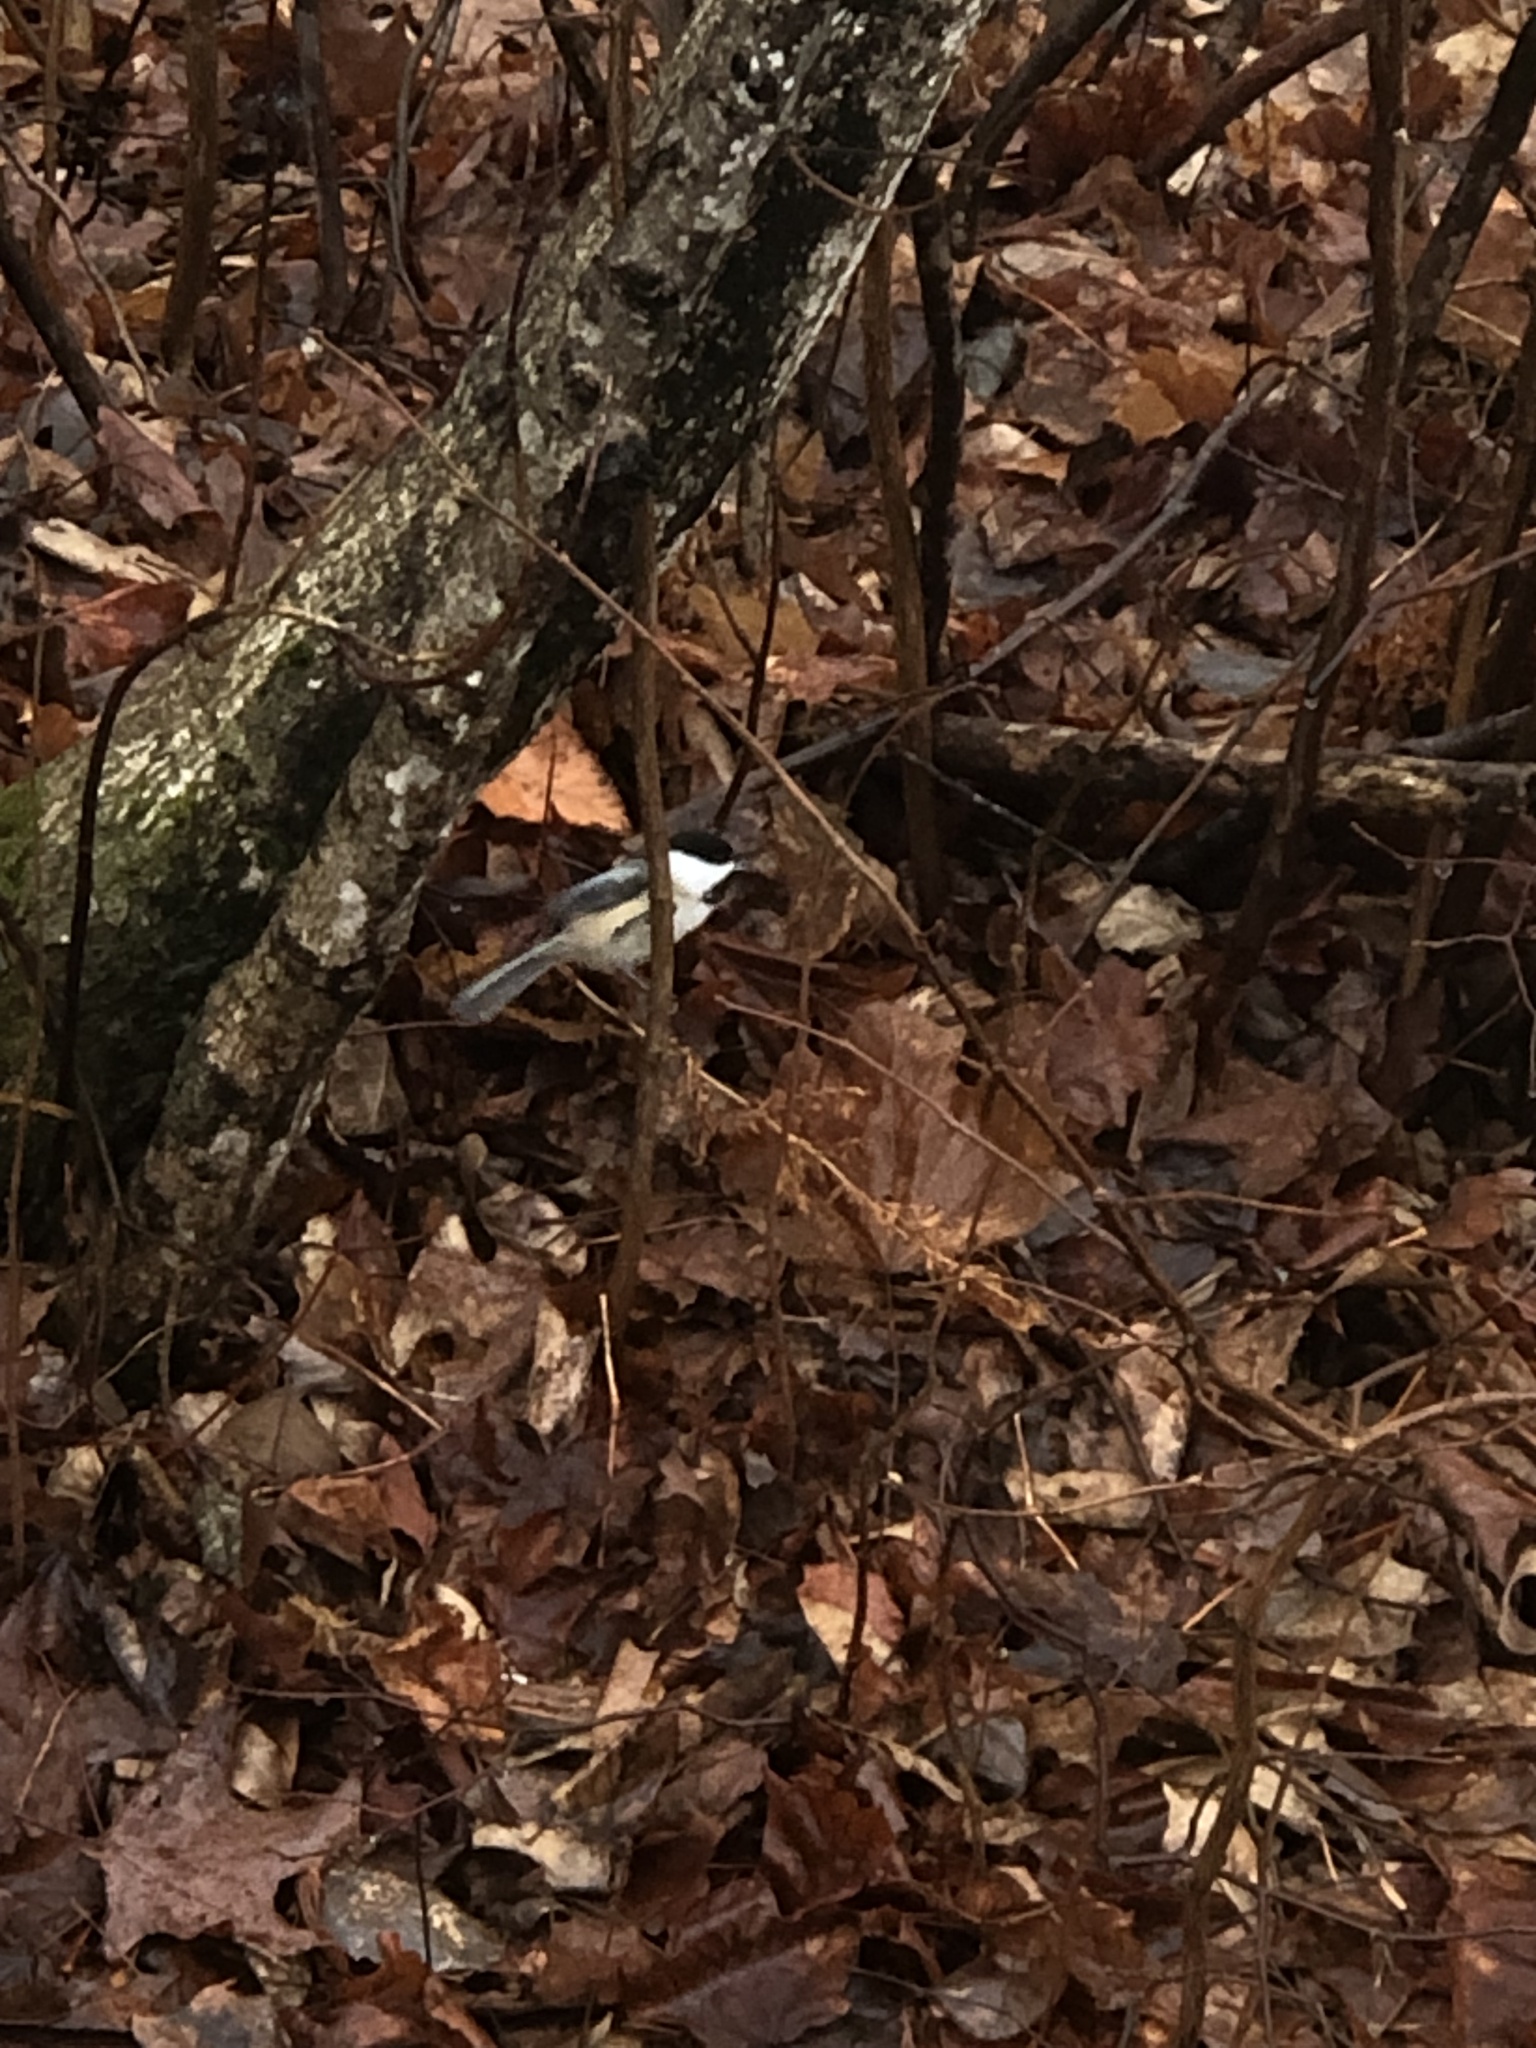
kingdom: Animalia
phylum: Chordata
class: Aves
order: Passeriformes
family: Paridae
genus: Poecile
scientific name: Poecile atricapillus
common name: Black-capped chickadee
